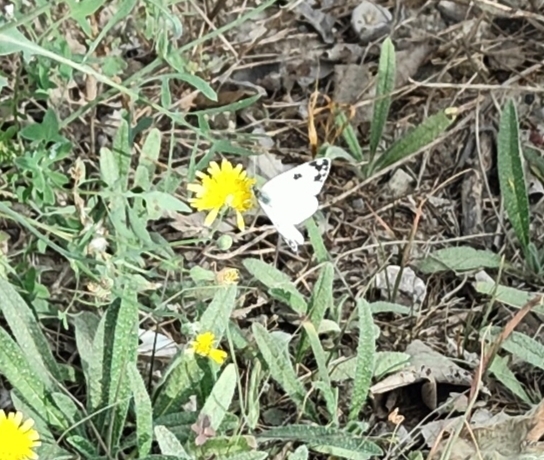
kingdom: Animalia
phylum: Arthropoda
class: Insecta
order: Lepidoptera
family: Pieridae
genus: Pontia
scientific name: Pontia daplidice
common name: Bath white
